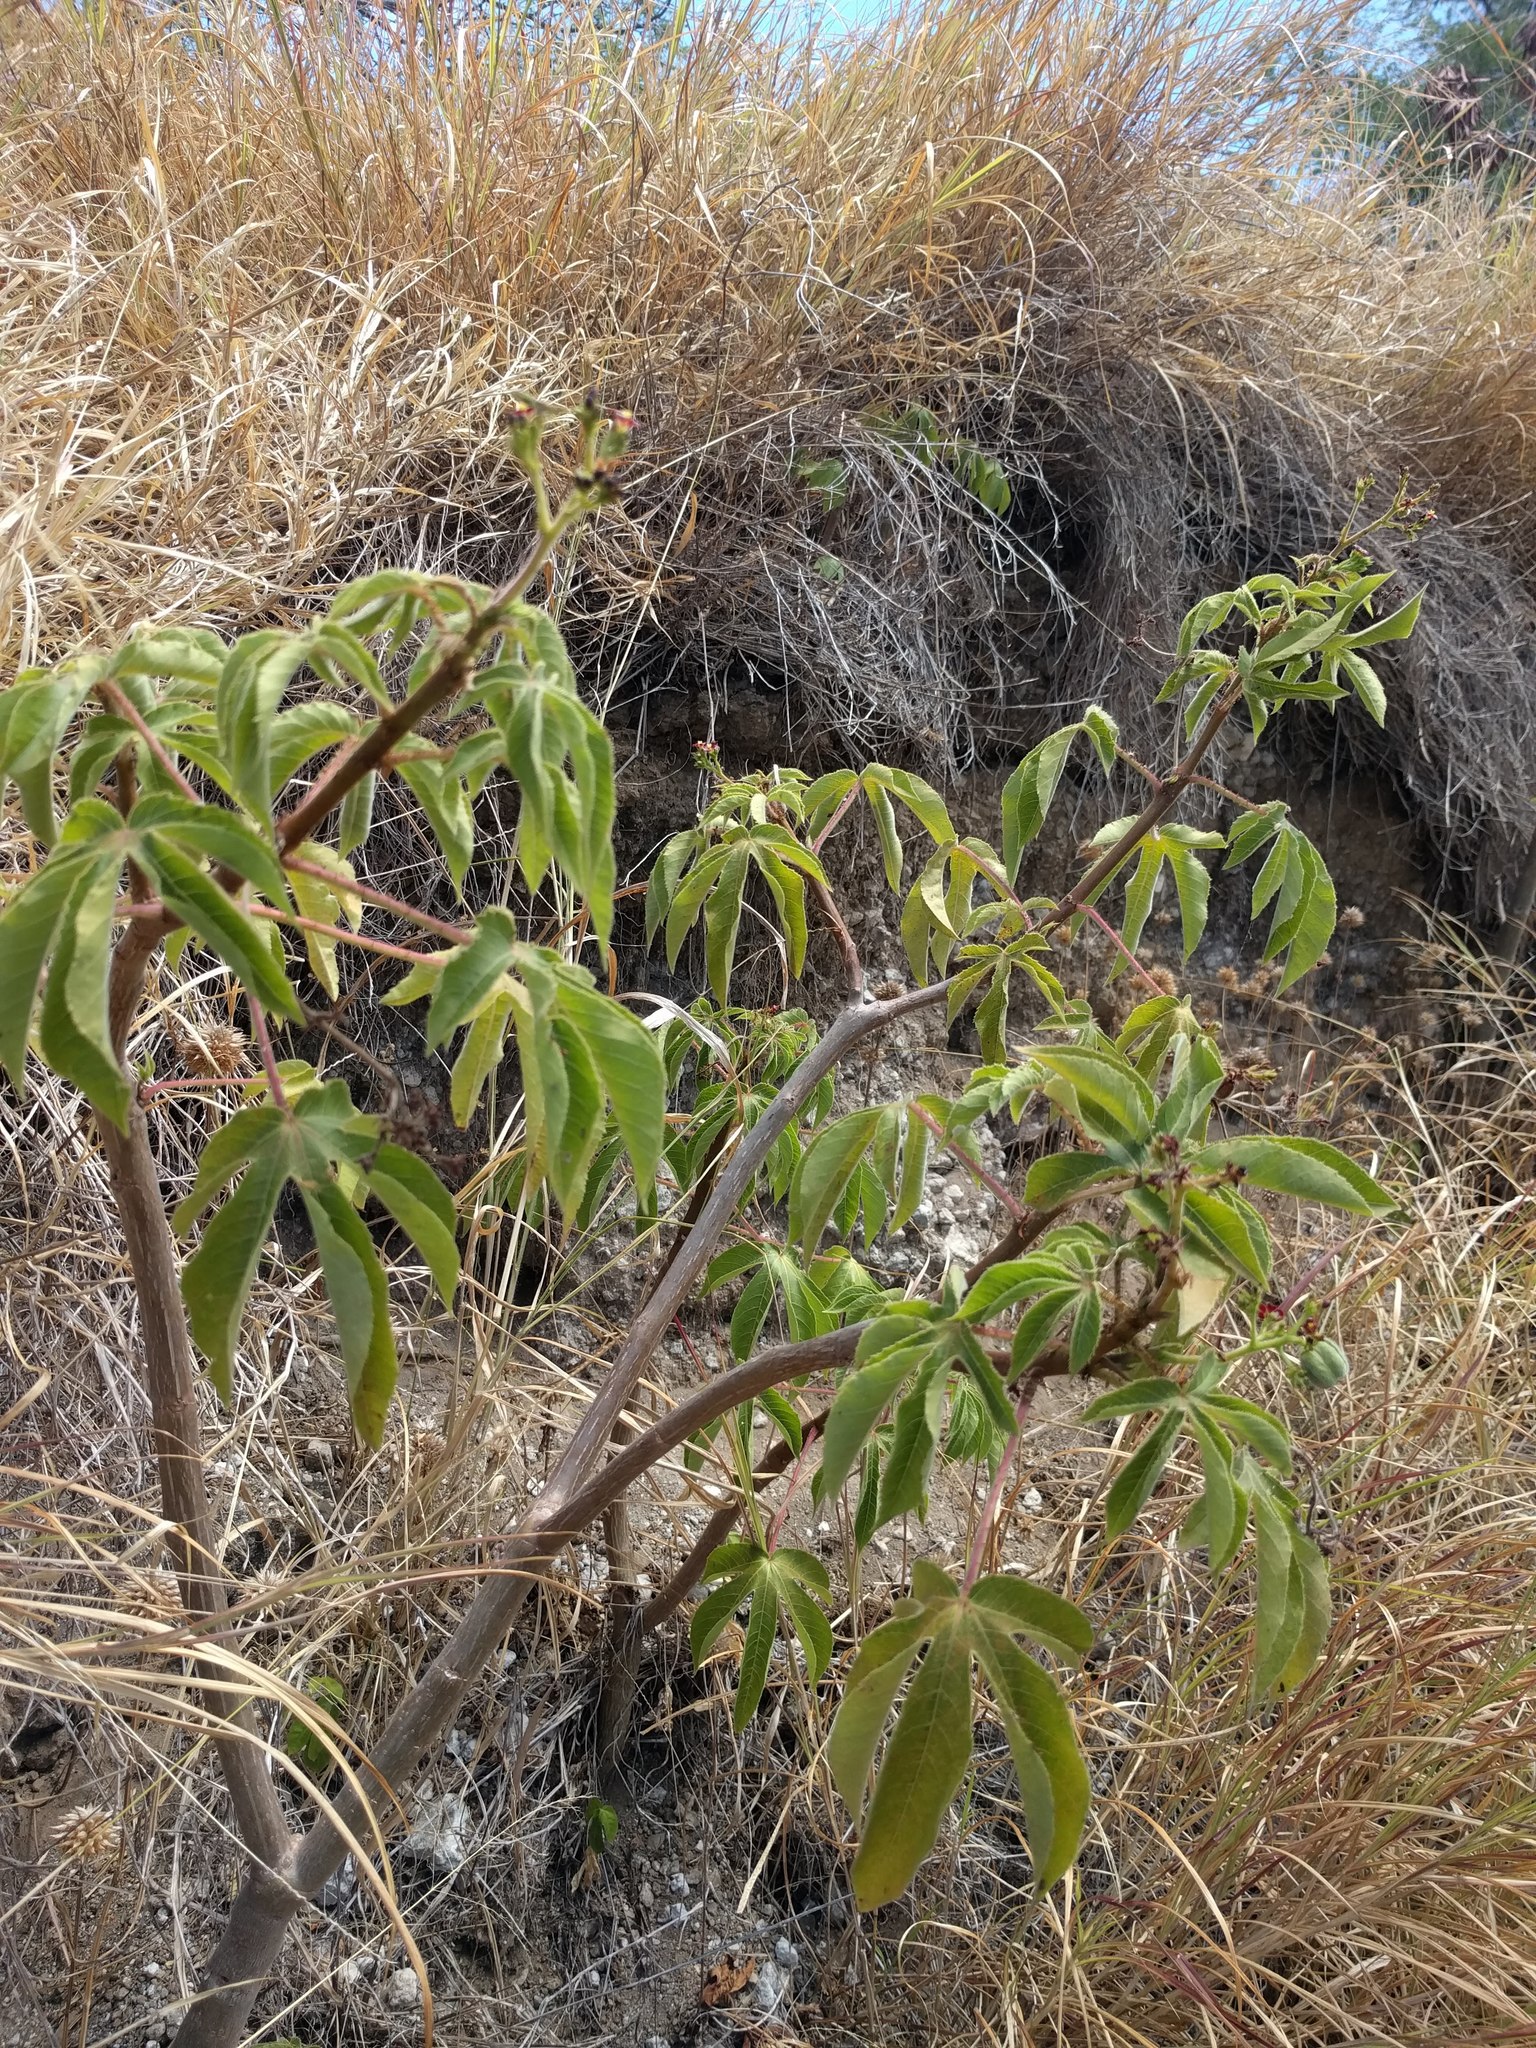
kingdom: Plantae
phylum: Tracheophyta
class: Magnoliopsida
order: Malpighiales
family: Euphorbiaceae
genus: Jatropha
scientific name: Jatropha gossypiifolia
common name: Bellyache bush
